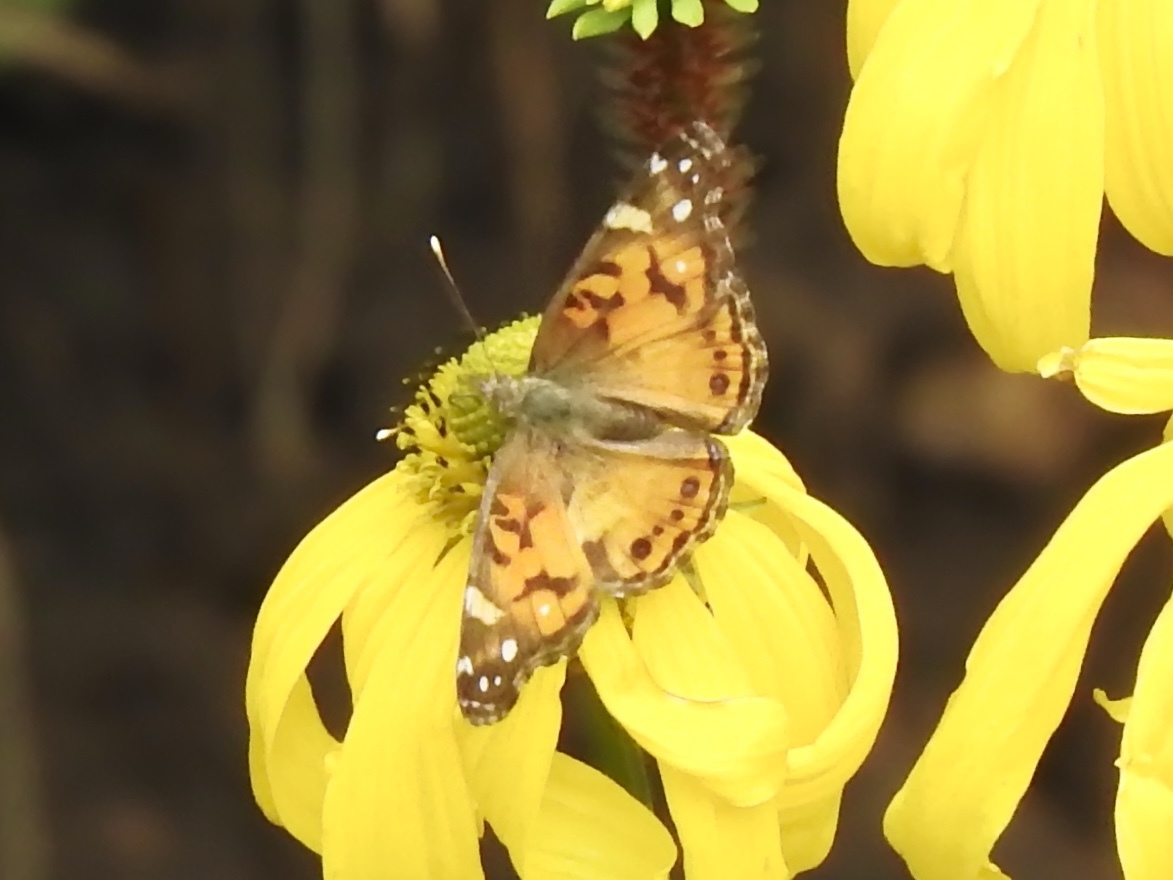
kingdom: Animalia
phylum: Arthropoda
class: Insecta
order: Lepidoptera
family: Nymphalidae
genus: Vanessa
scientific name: Vanessa virginiensis
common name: American lady
